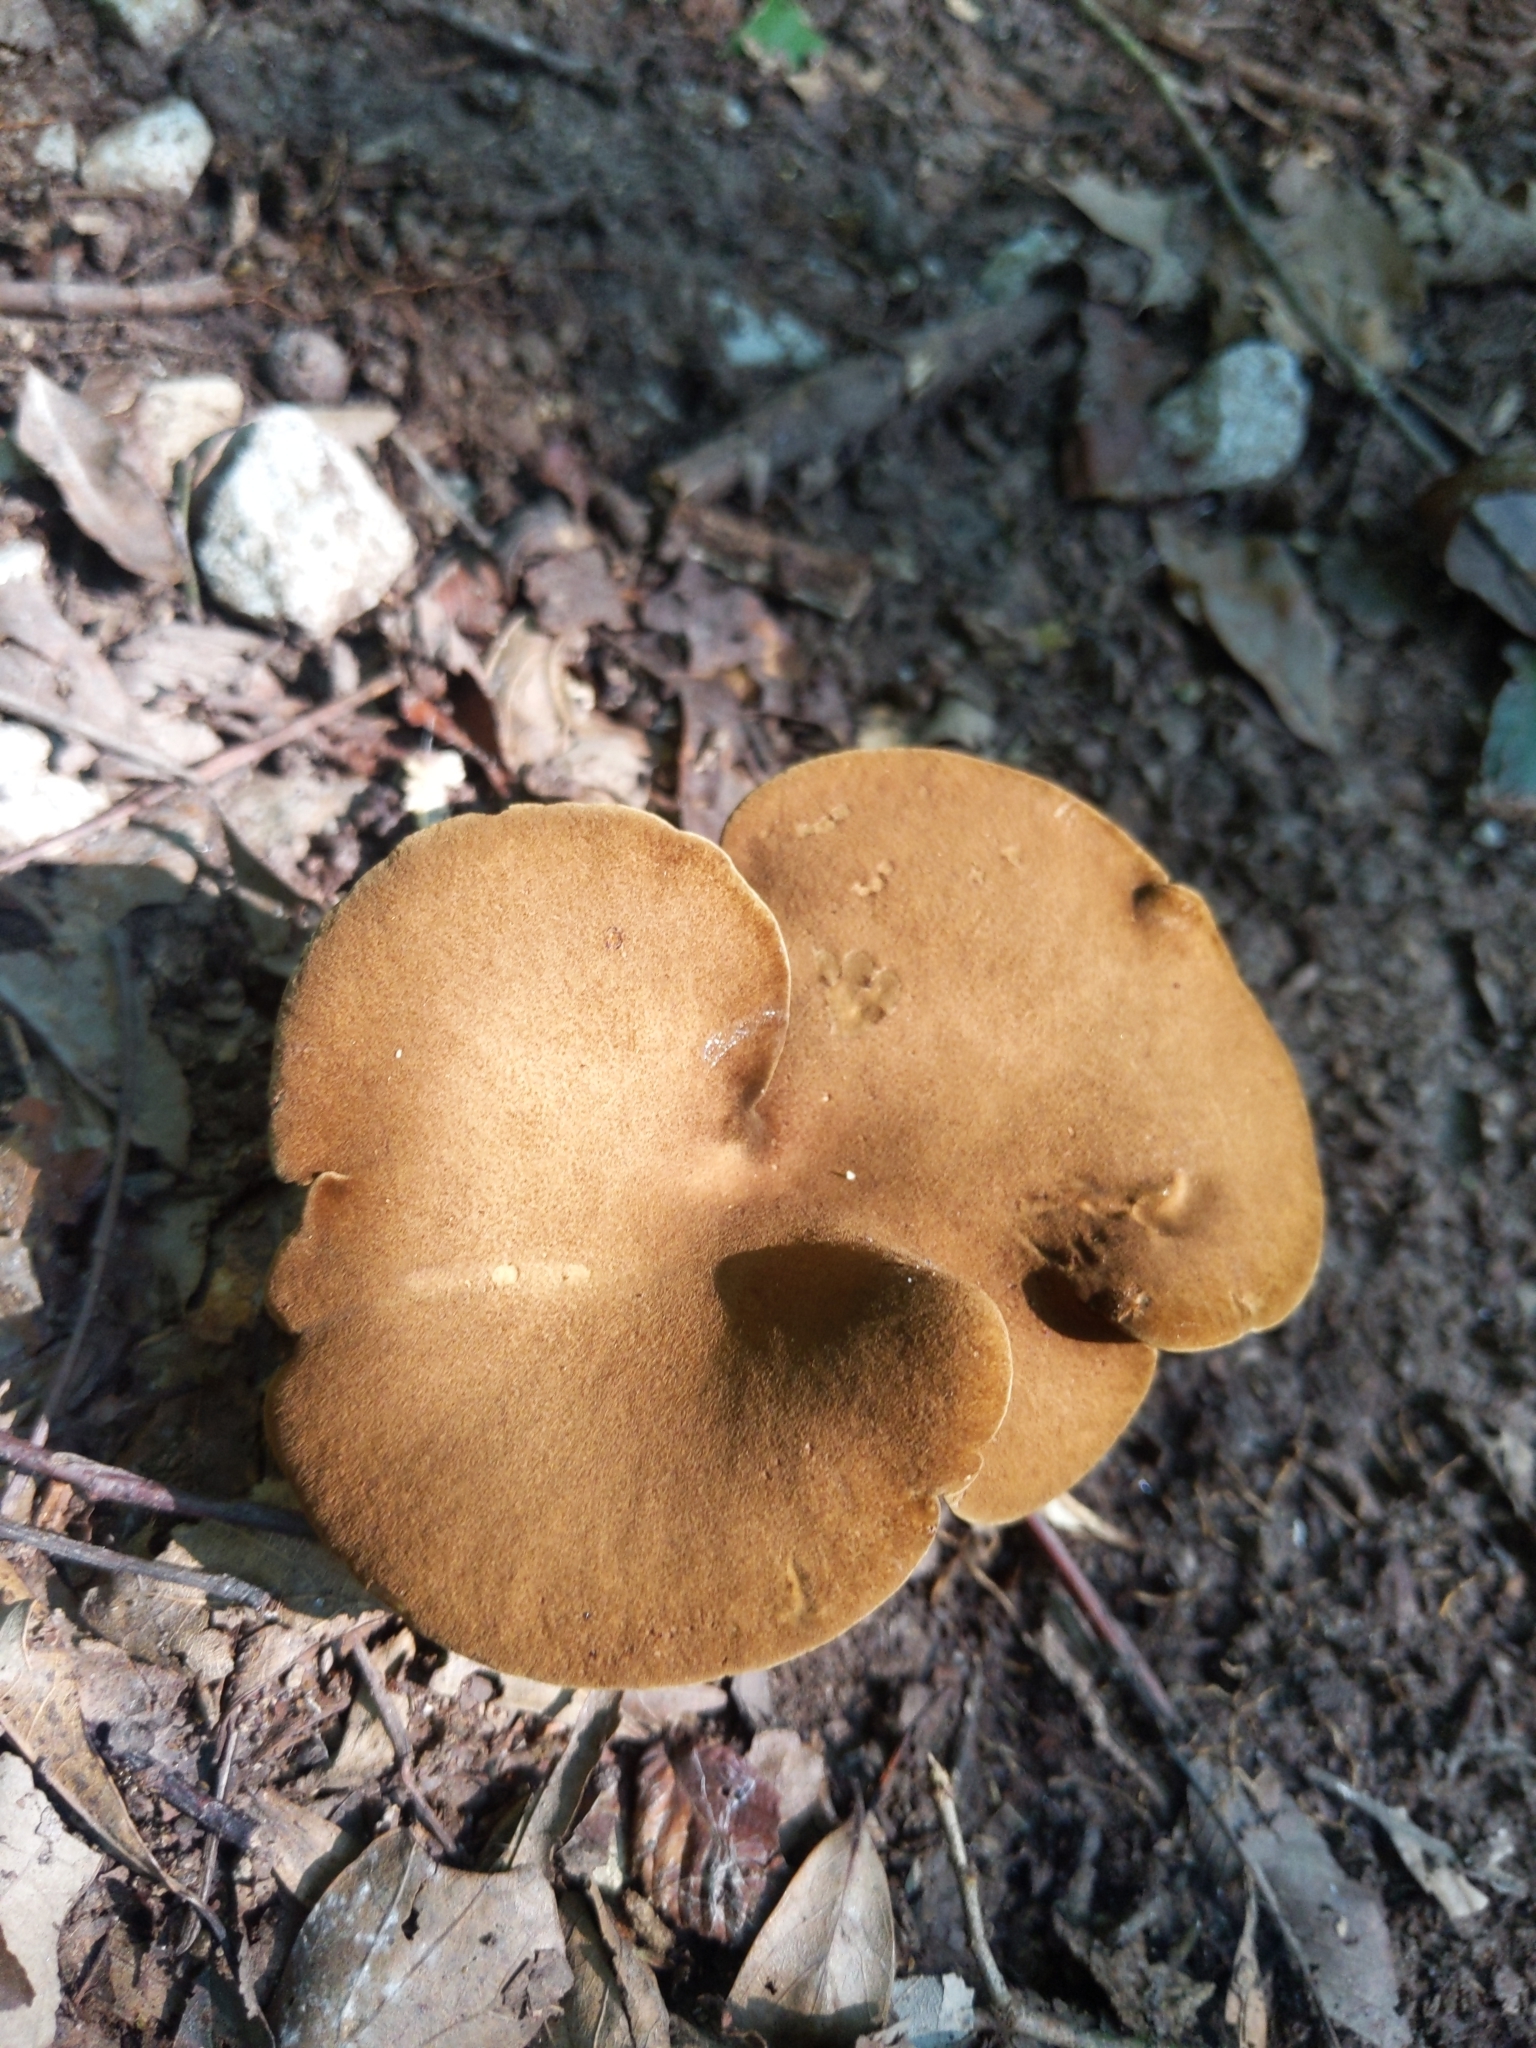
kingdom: Fungi
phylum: Basidiomycota
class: Agaricomycetes
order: Boletales
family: Boletinellaceae
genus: Boletinellus
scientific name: Boletinellus merulioides
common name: Ash tree bolete
